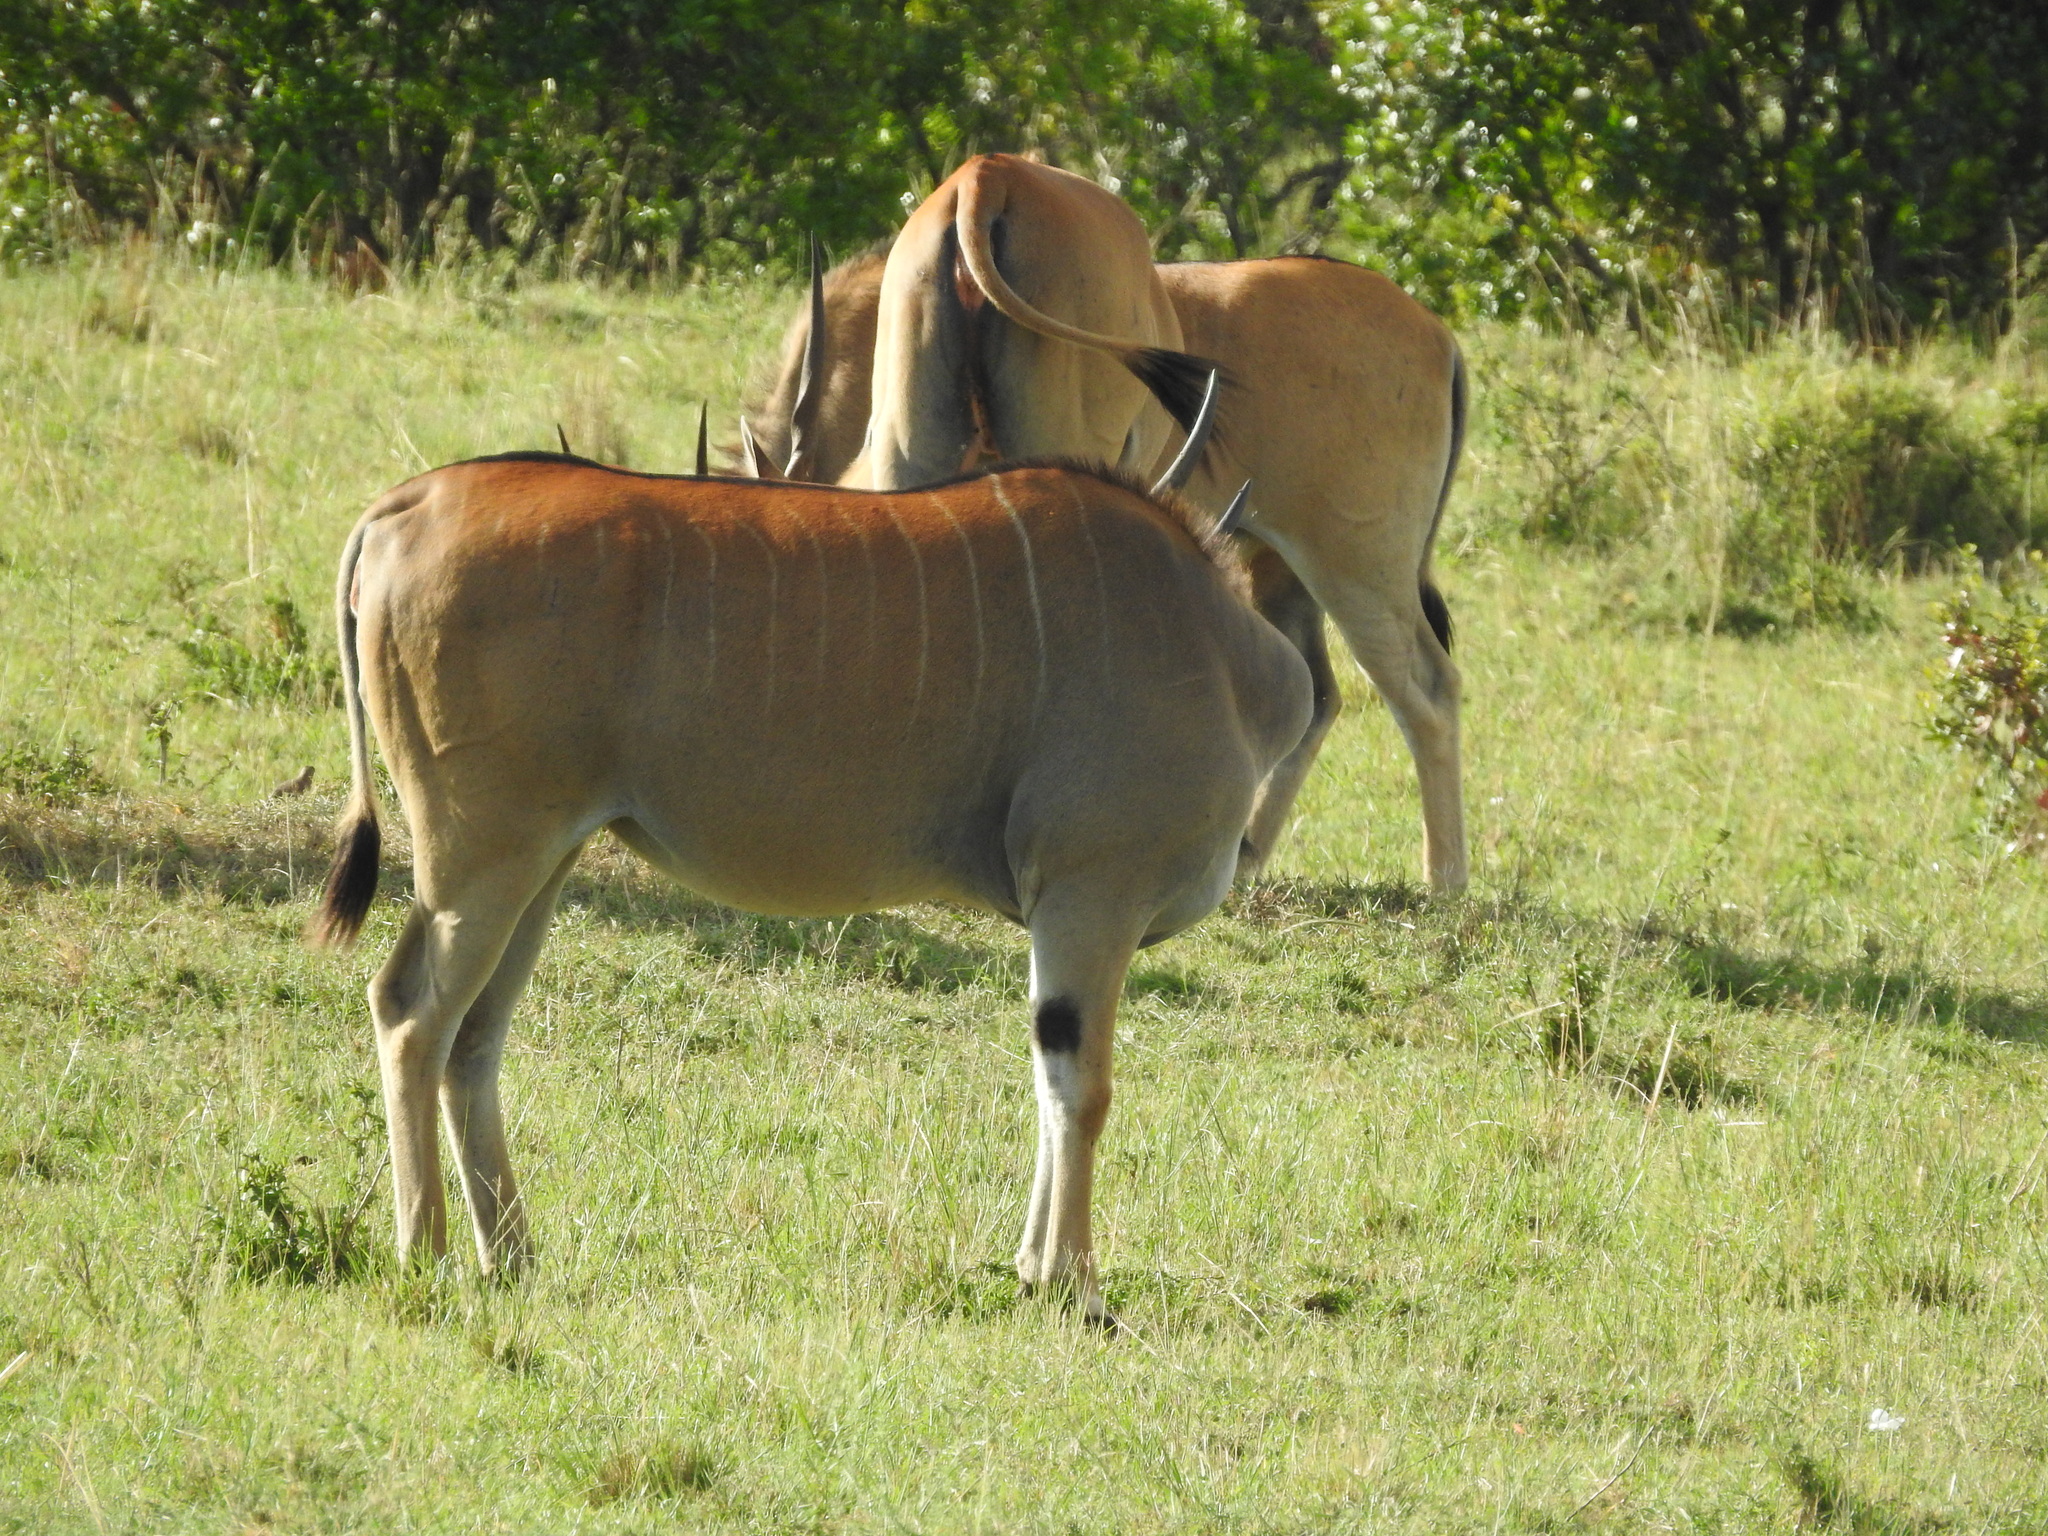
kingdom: Animalia
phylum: Chordata
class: Mammalia
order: Artiodactyla
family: Bovidae
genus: Taurotragus
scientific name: Taurotragus oryx
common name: Common eland
